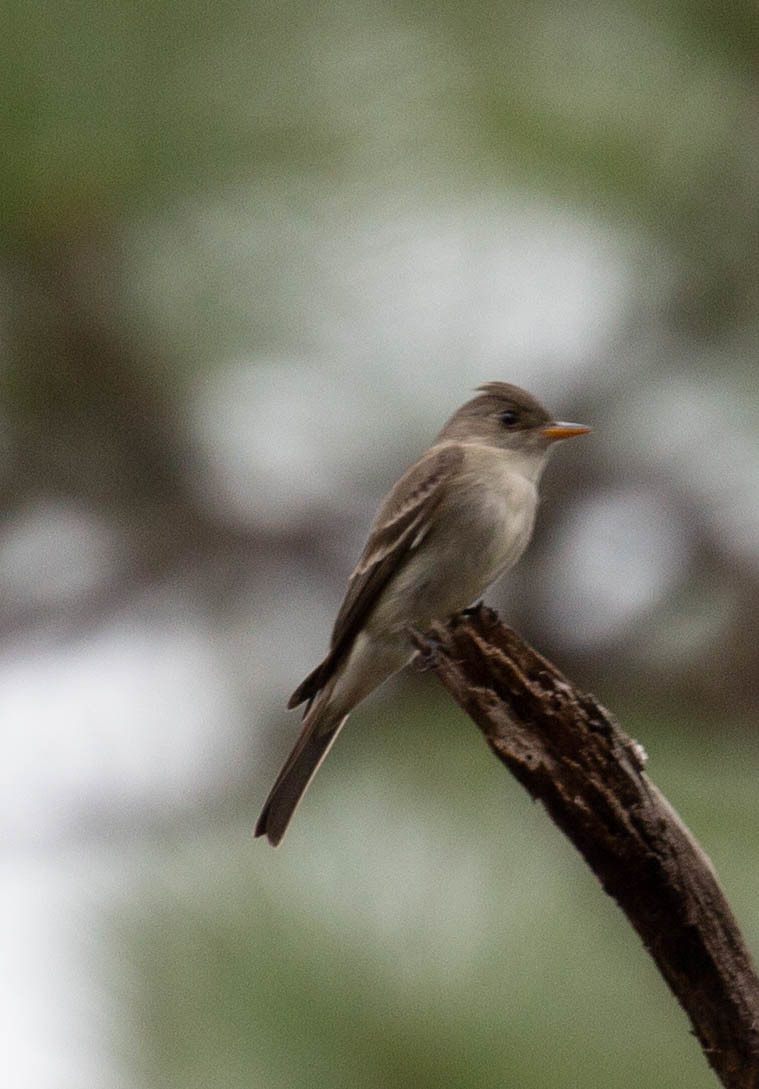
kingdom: Animalia
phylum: Chordata
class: Aves
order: Passeriformes
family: Tyrannidae
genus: Contopus
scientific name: Contopus virens
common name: Eastern wood-pewee
